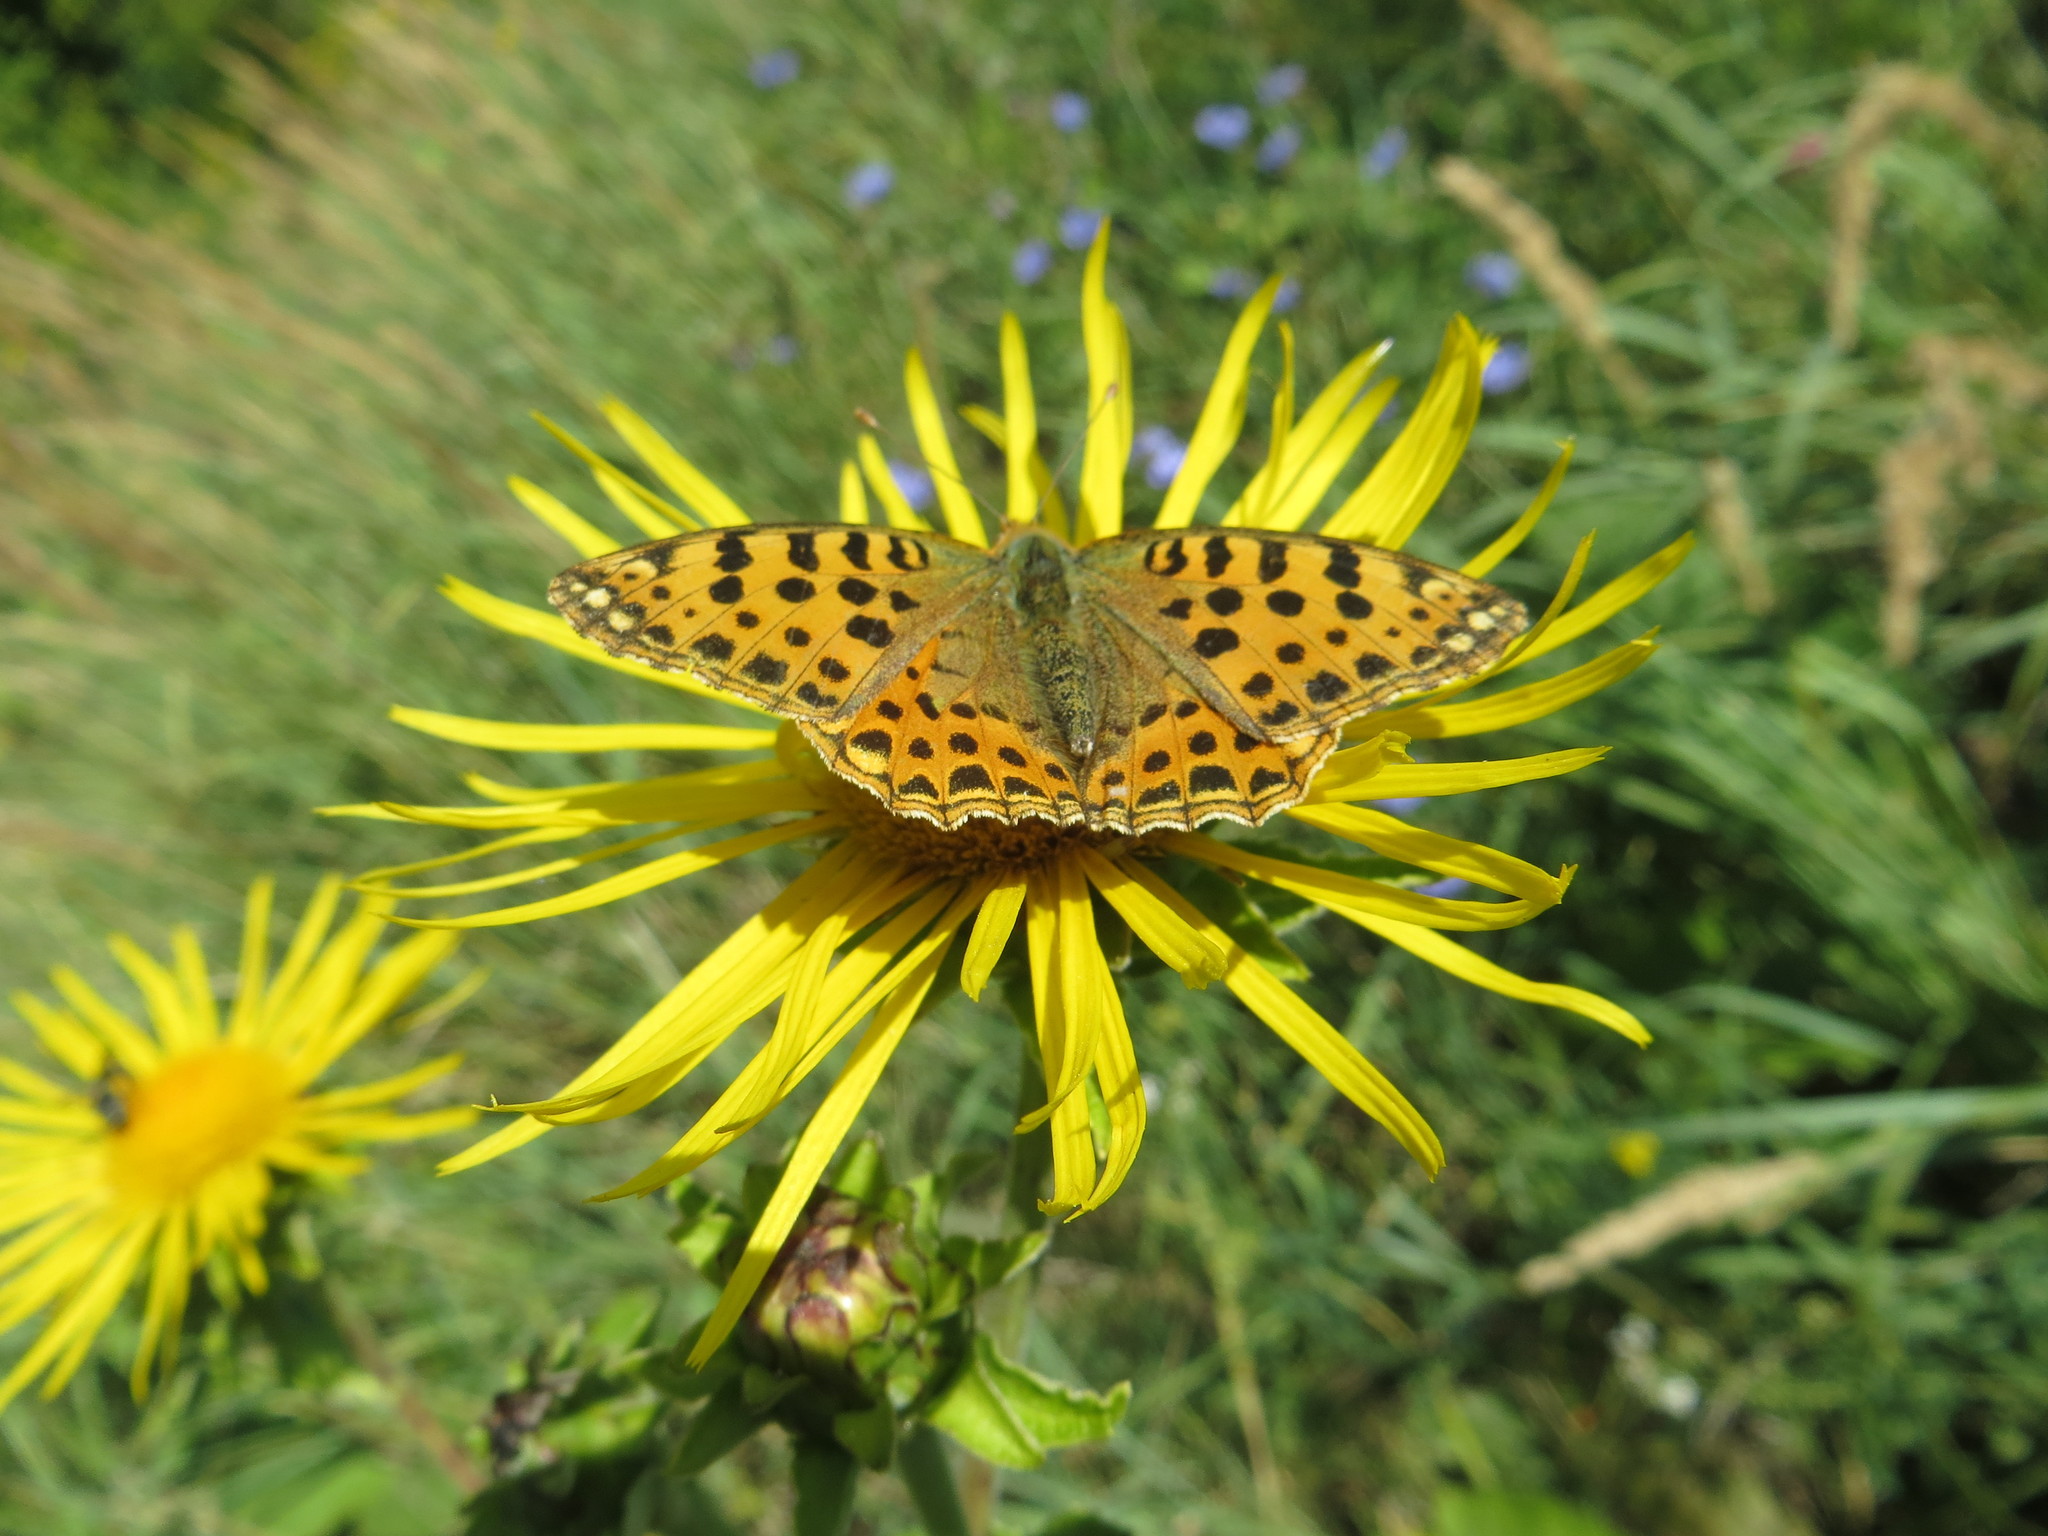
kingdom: Animalia
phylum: Arthropoda
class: Insecta
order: Lepidoptera
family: Nymphalidae
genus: Issoria
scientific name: Issoria lathonia
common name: Queen of spain fritillary
